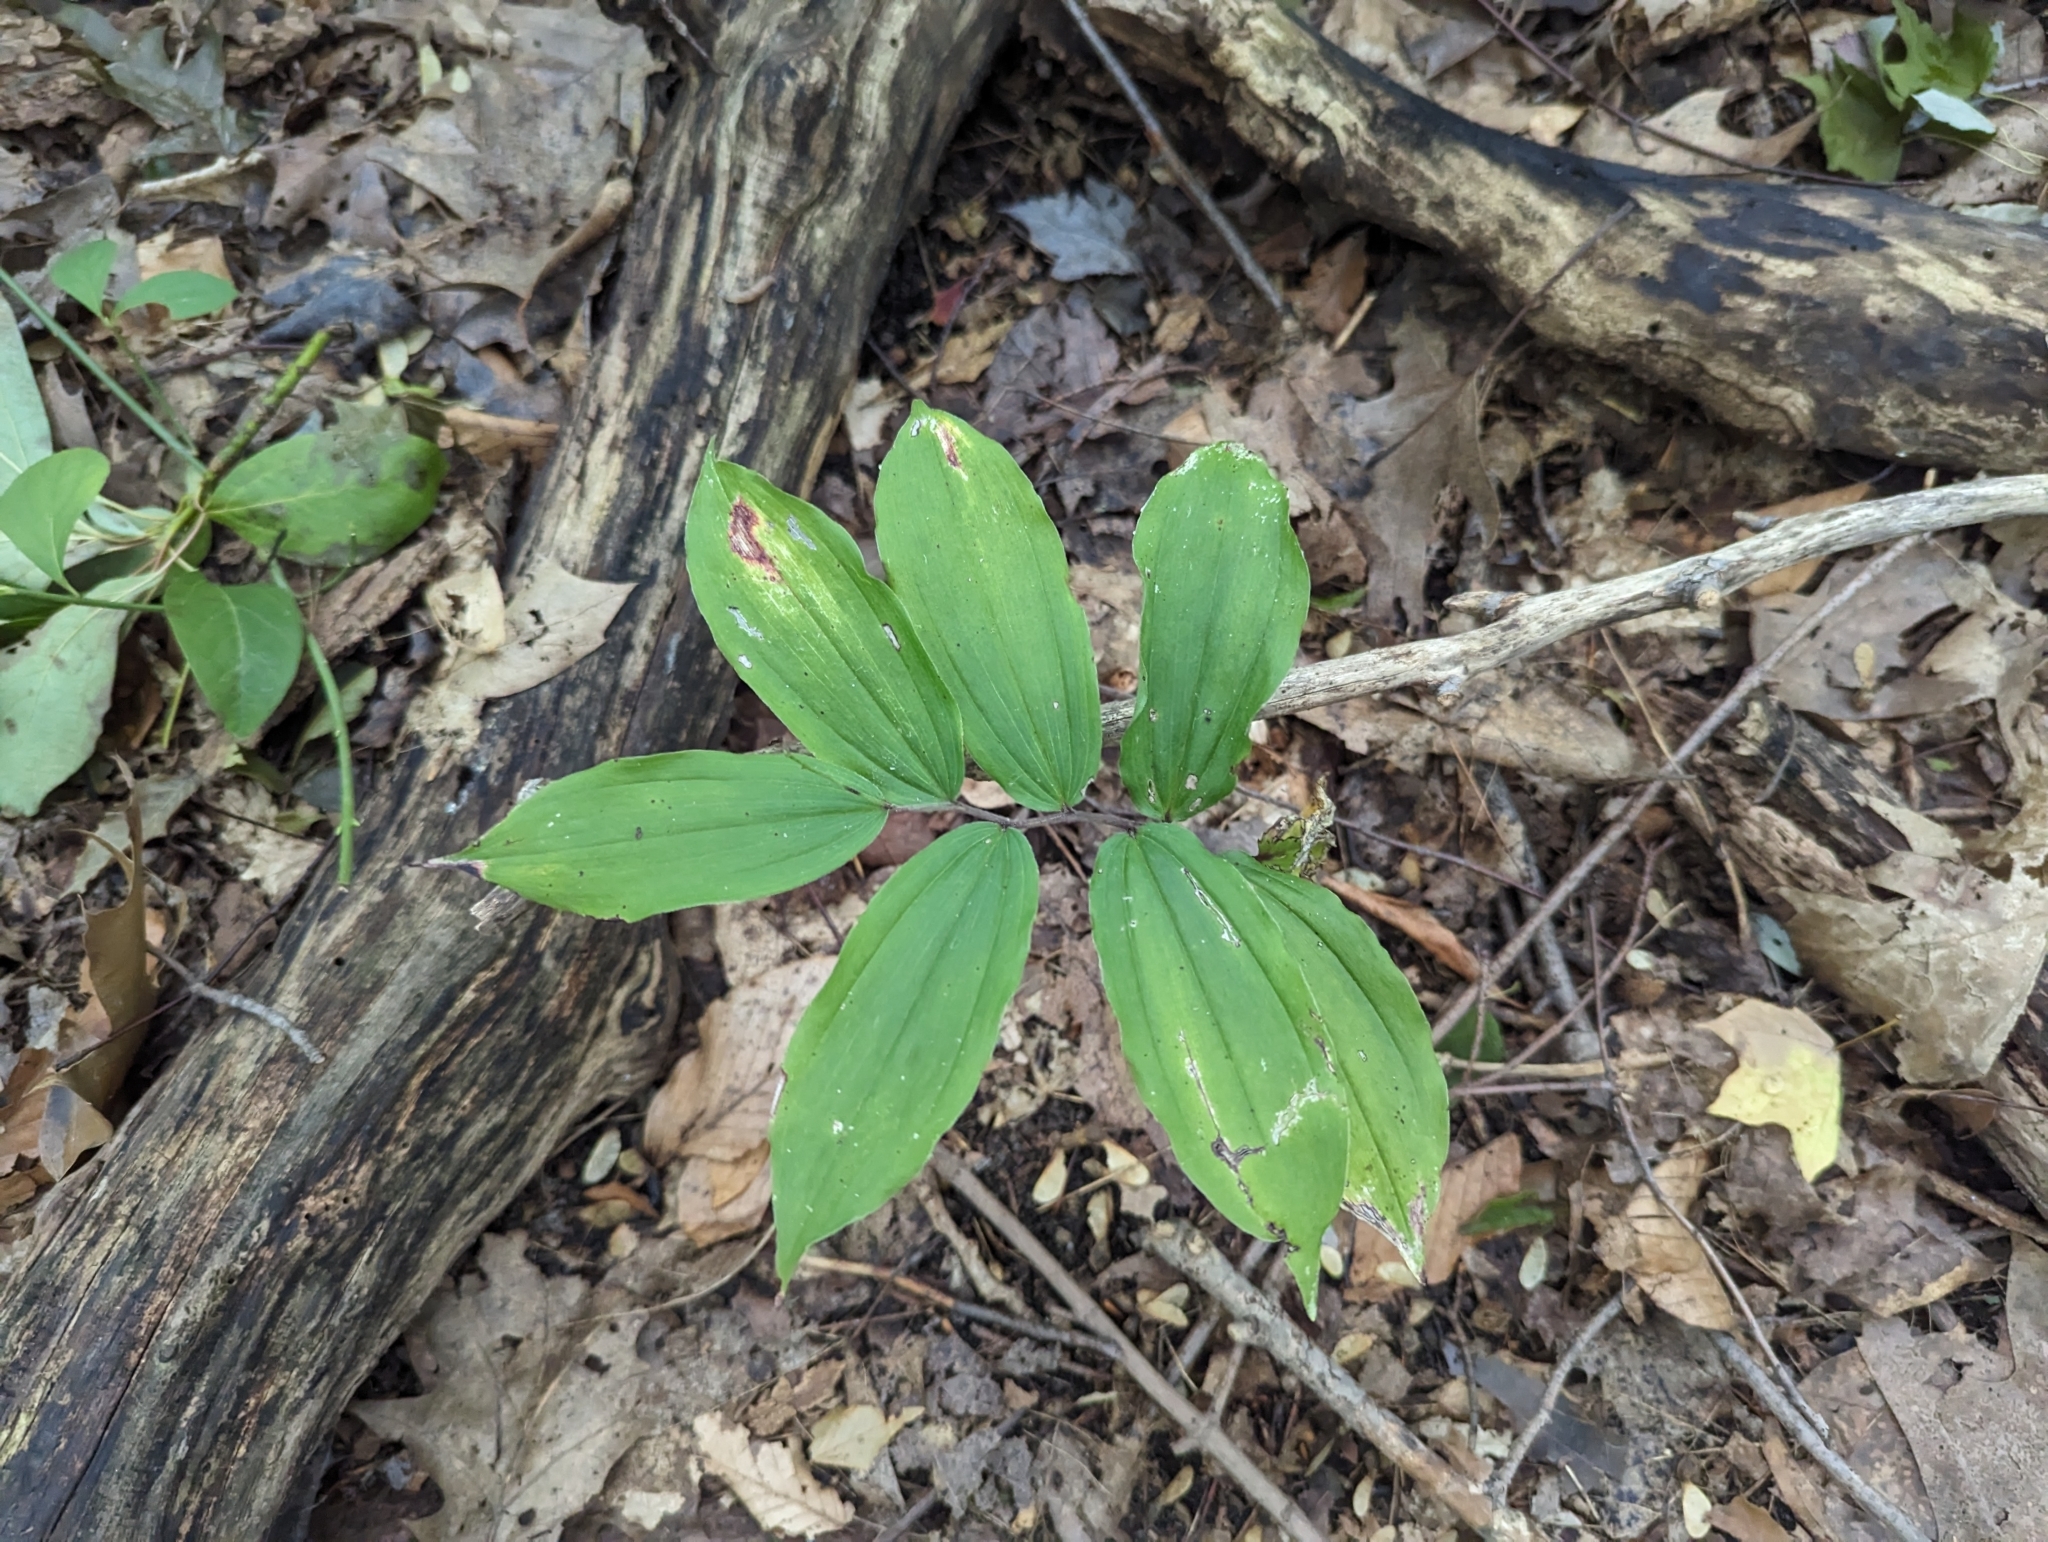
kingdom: Plantae
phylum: Tracheophyta
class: Liliopsida
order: Asparagales
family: Asparagaceae
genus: Maianthemum
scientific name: Maianthemum racemosum
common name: False spikenard
